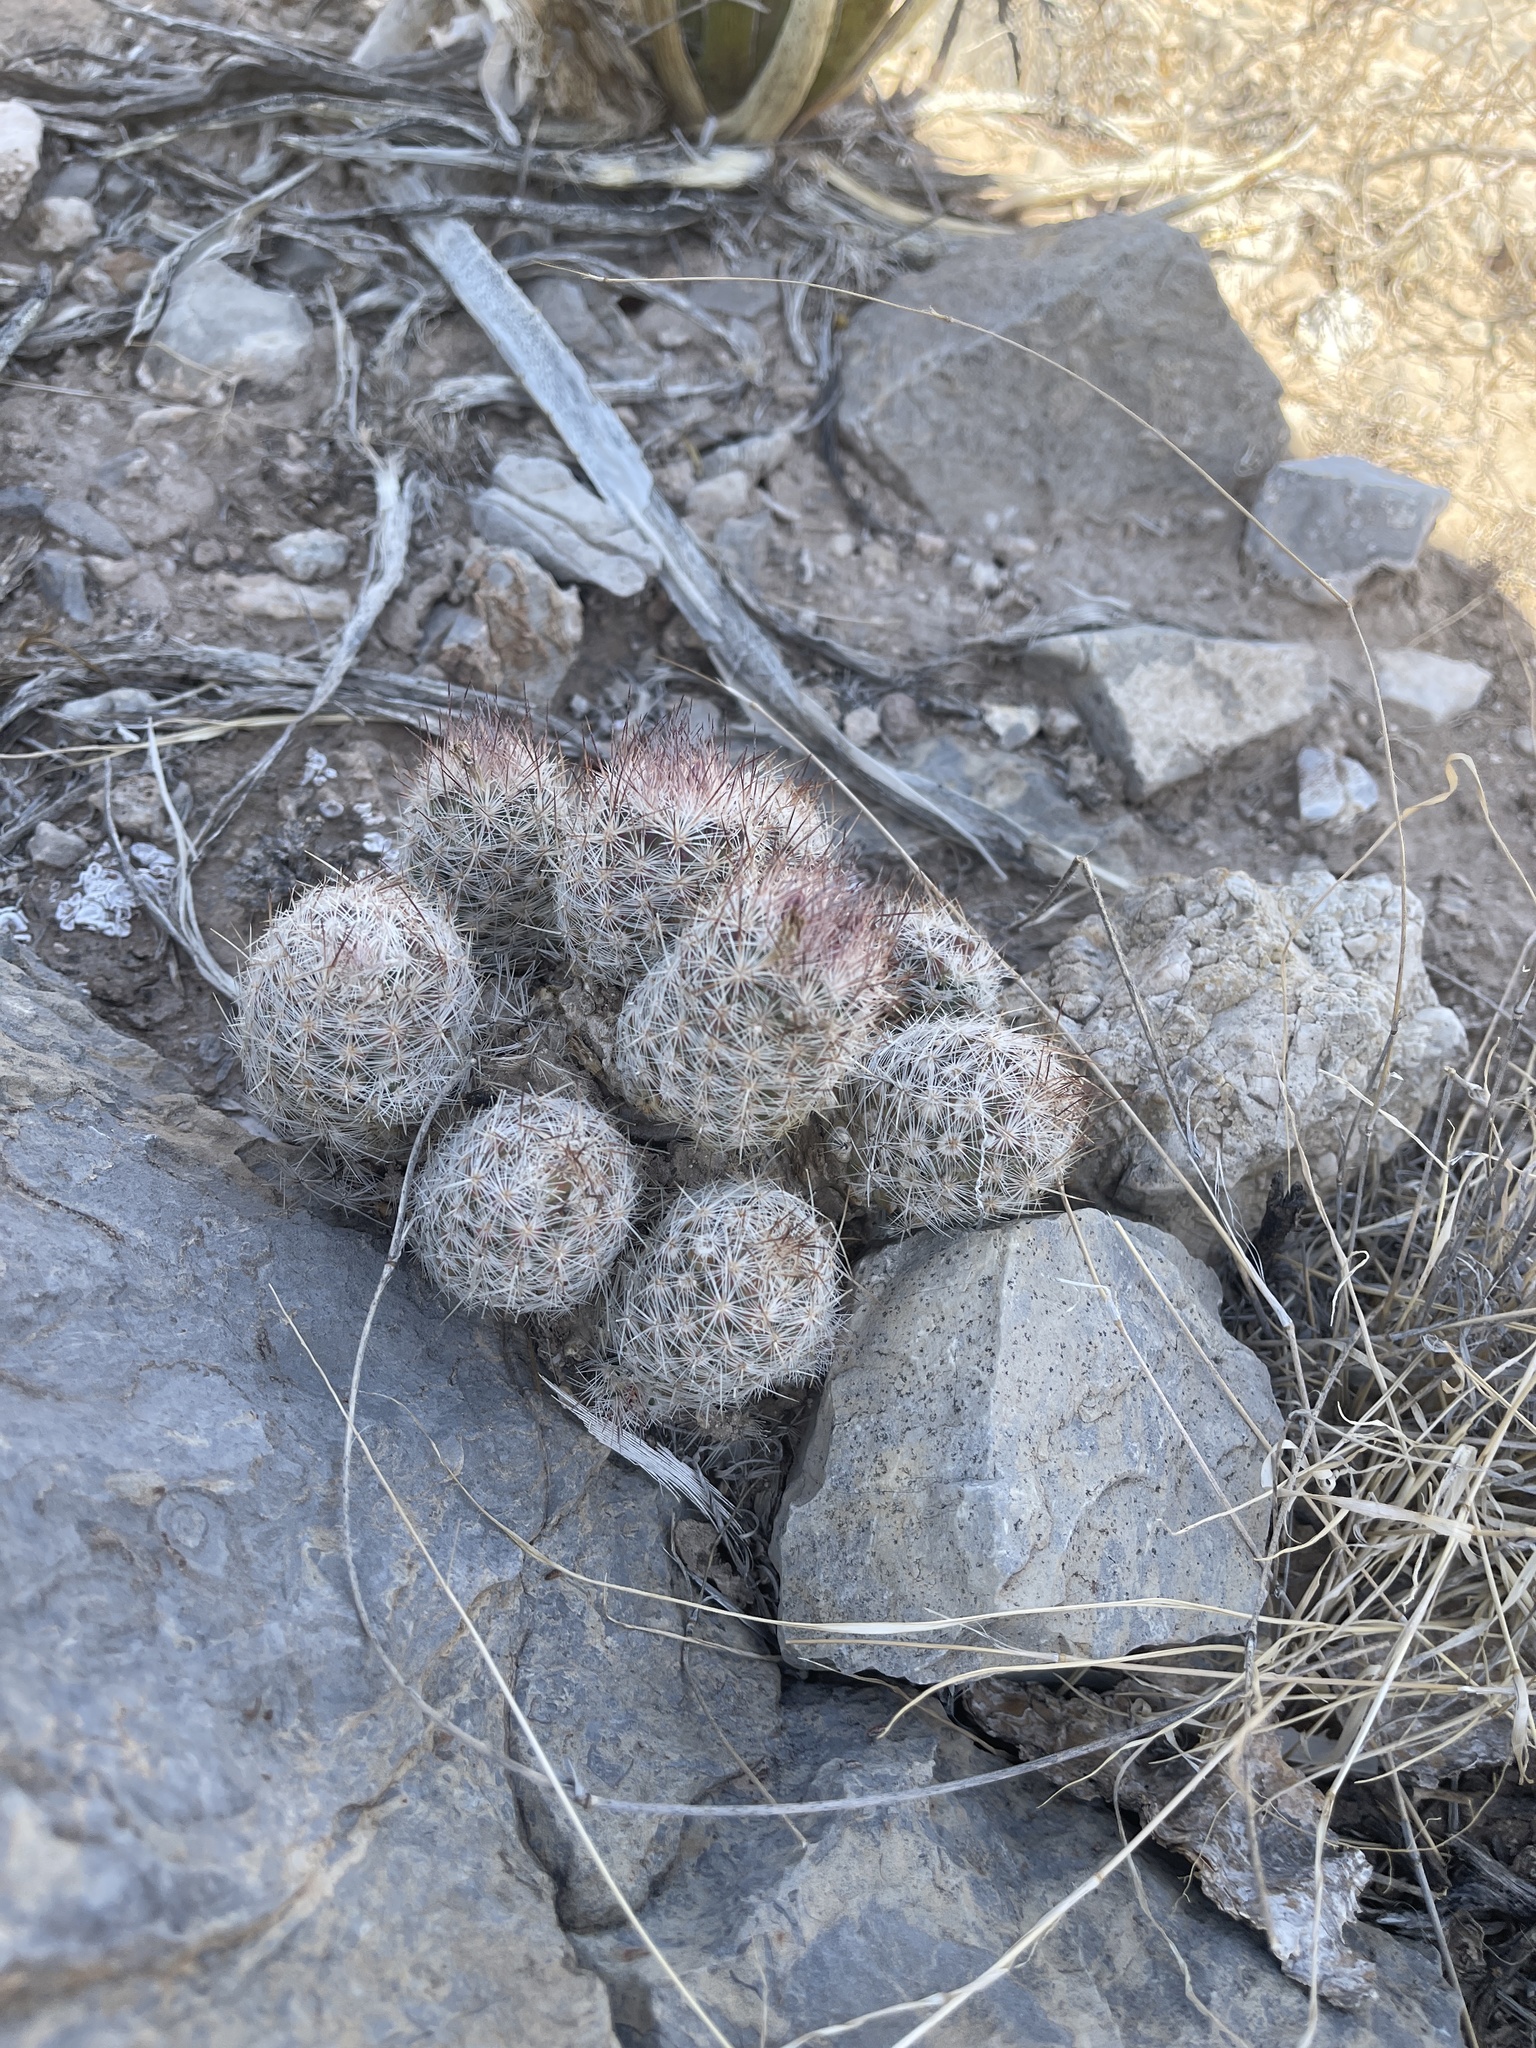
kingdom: Plantae
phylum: Tracheophyta
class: Magnoliopsida
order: Caryophyllales
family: Cactaceae
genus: Pelecyphora
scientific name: Pelecyphora tuberculosa
